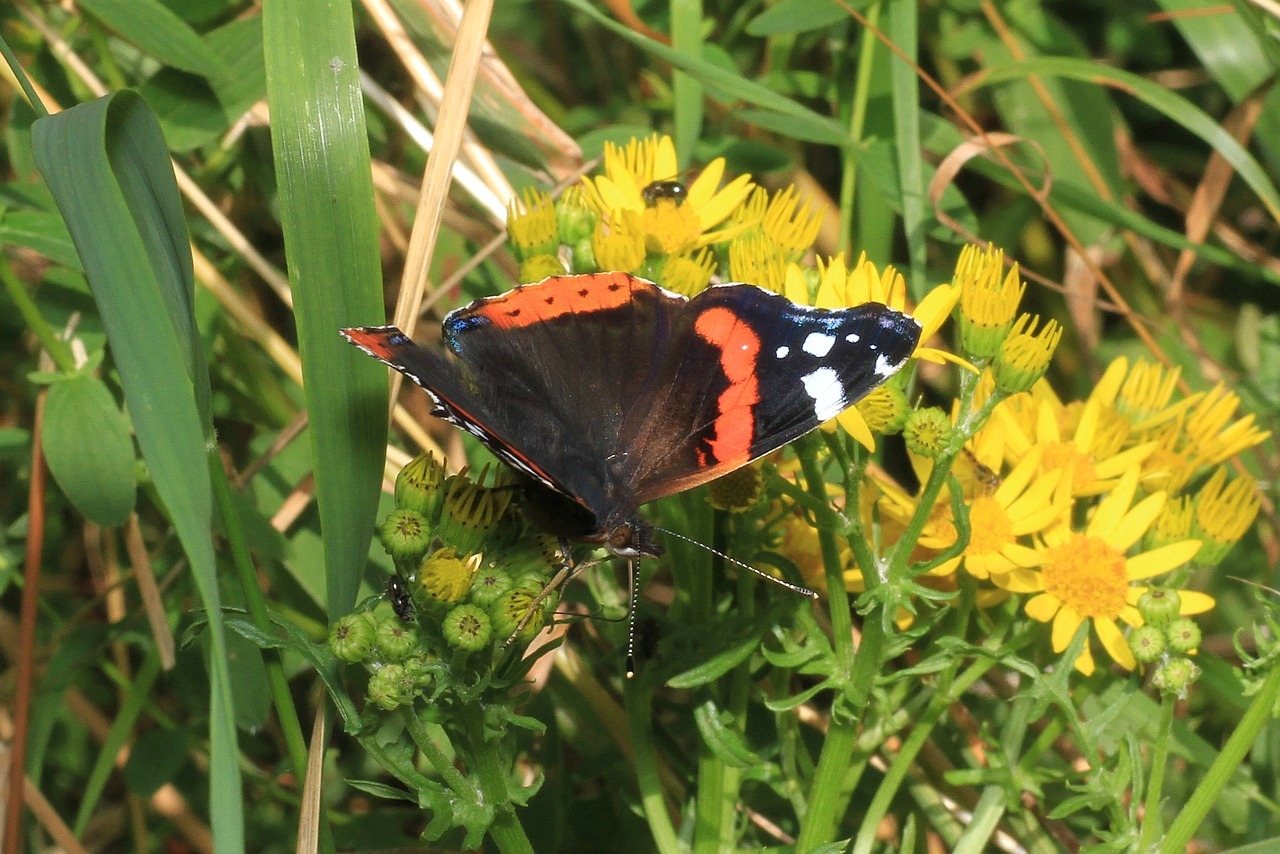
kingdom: Animalia
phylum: Arthropoda
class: Insecta
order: Lepidoptera
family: Nymphalidae
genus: Vanessa
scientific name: Vanessa atalanta
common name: Red admiral
